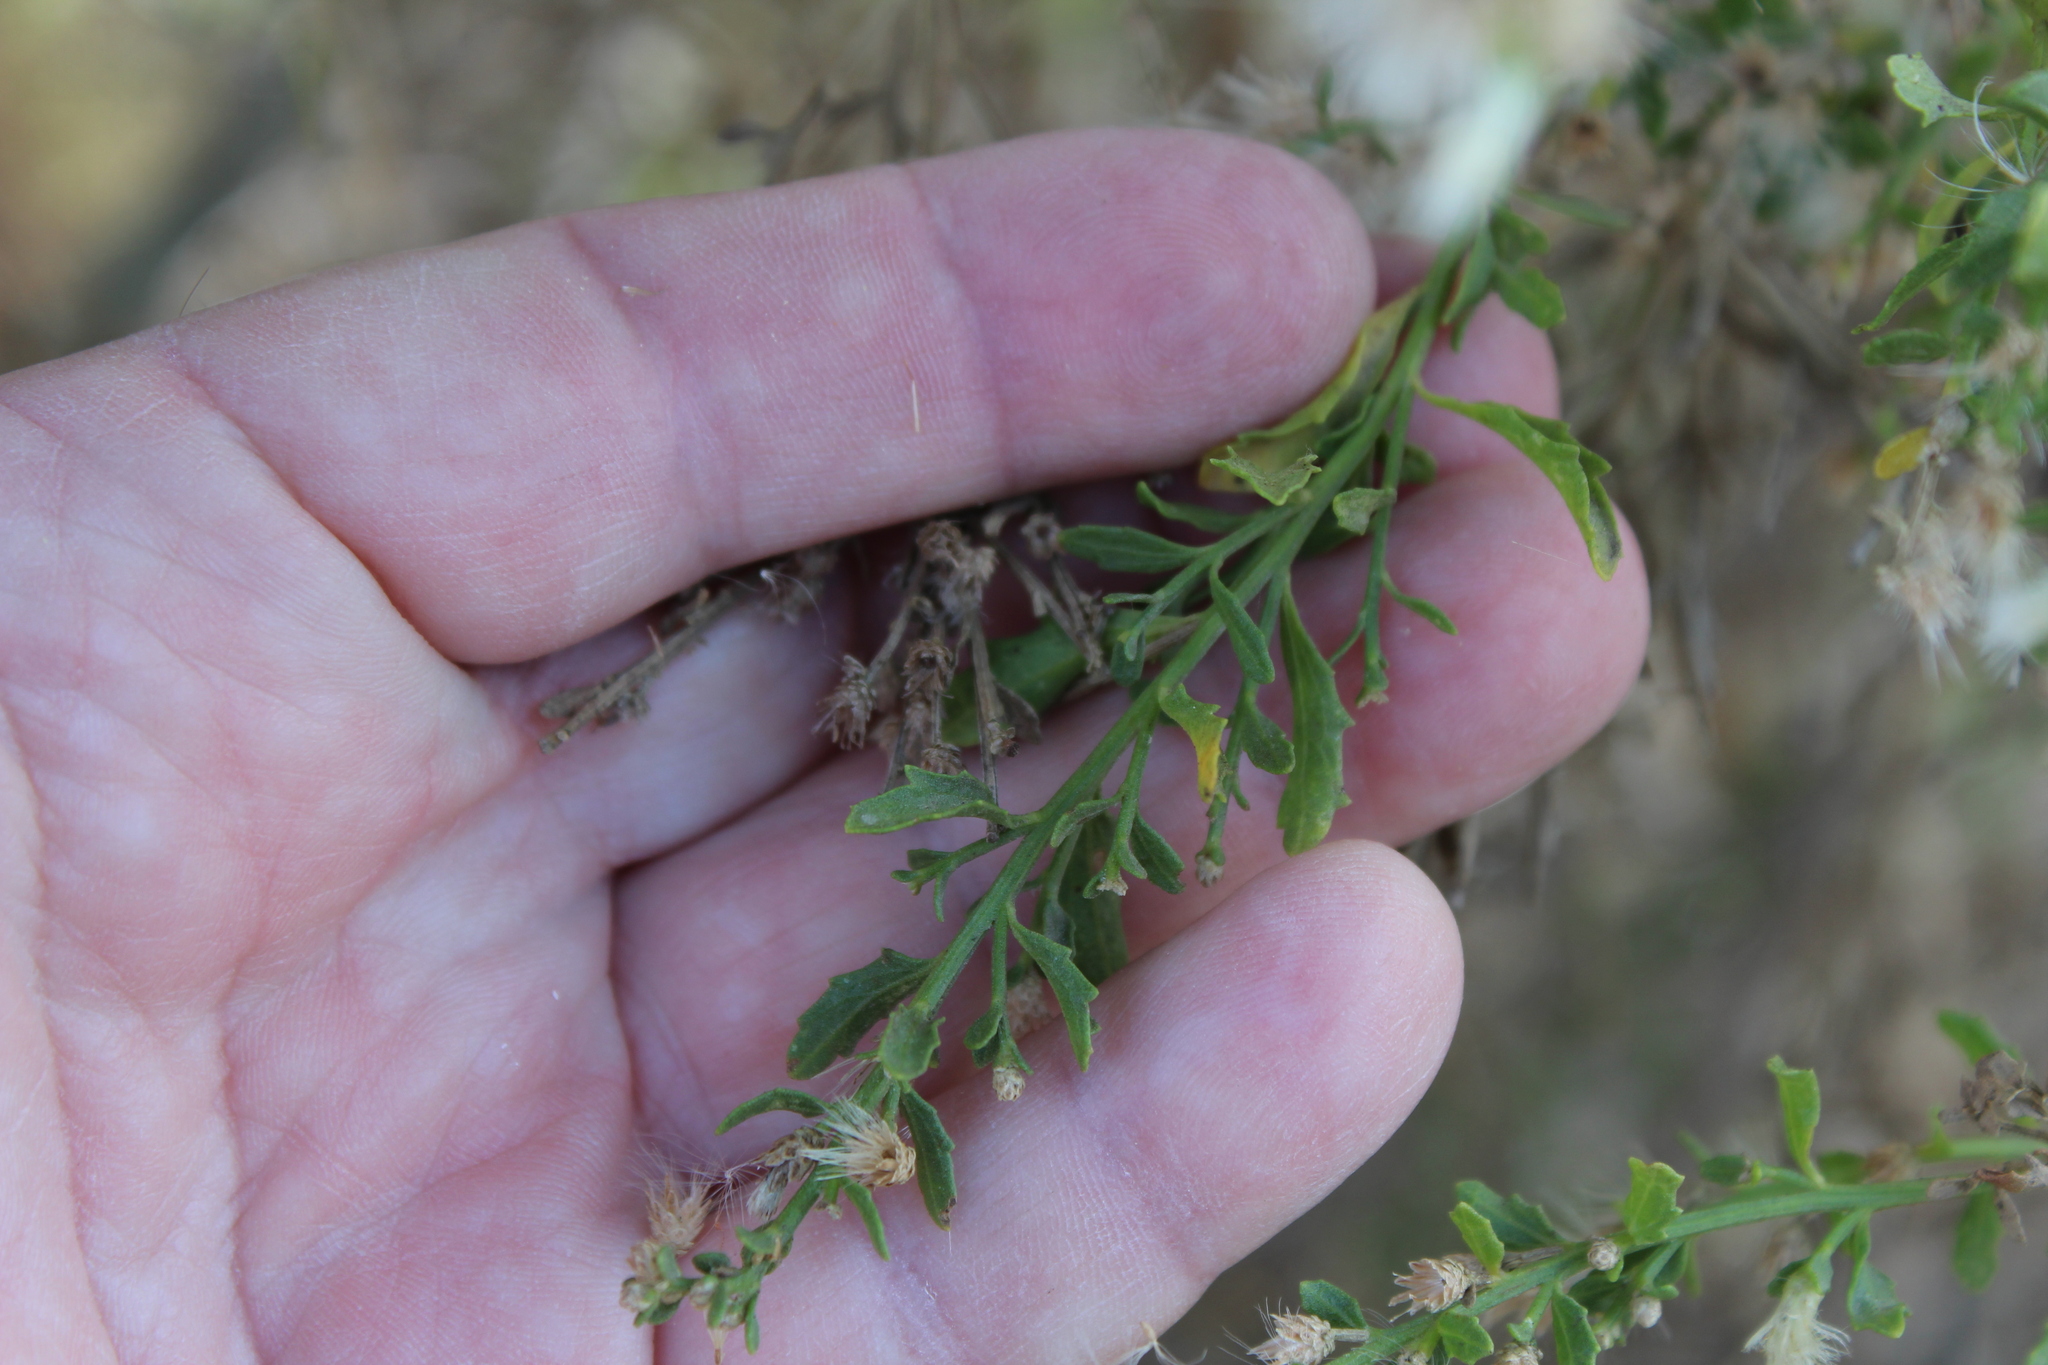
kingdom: Plantae
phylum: Tracheophyta
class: Magnoliopsida
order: Asterales
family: Asteraceae
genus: Baccharis
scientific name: Baccharis pilularis
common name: Coyotebrush
